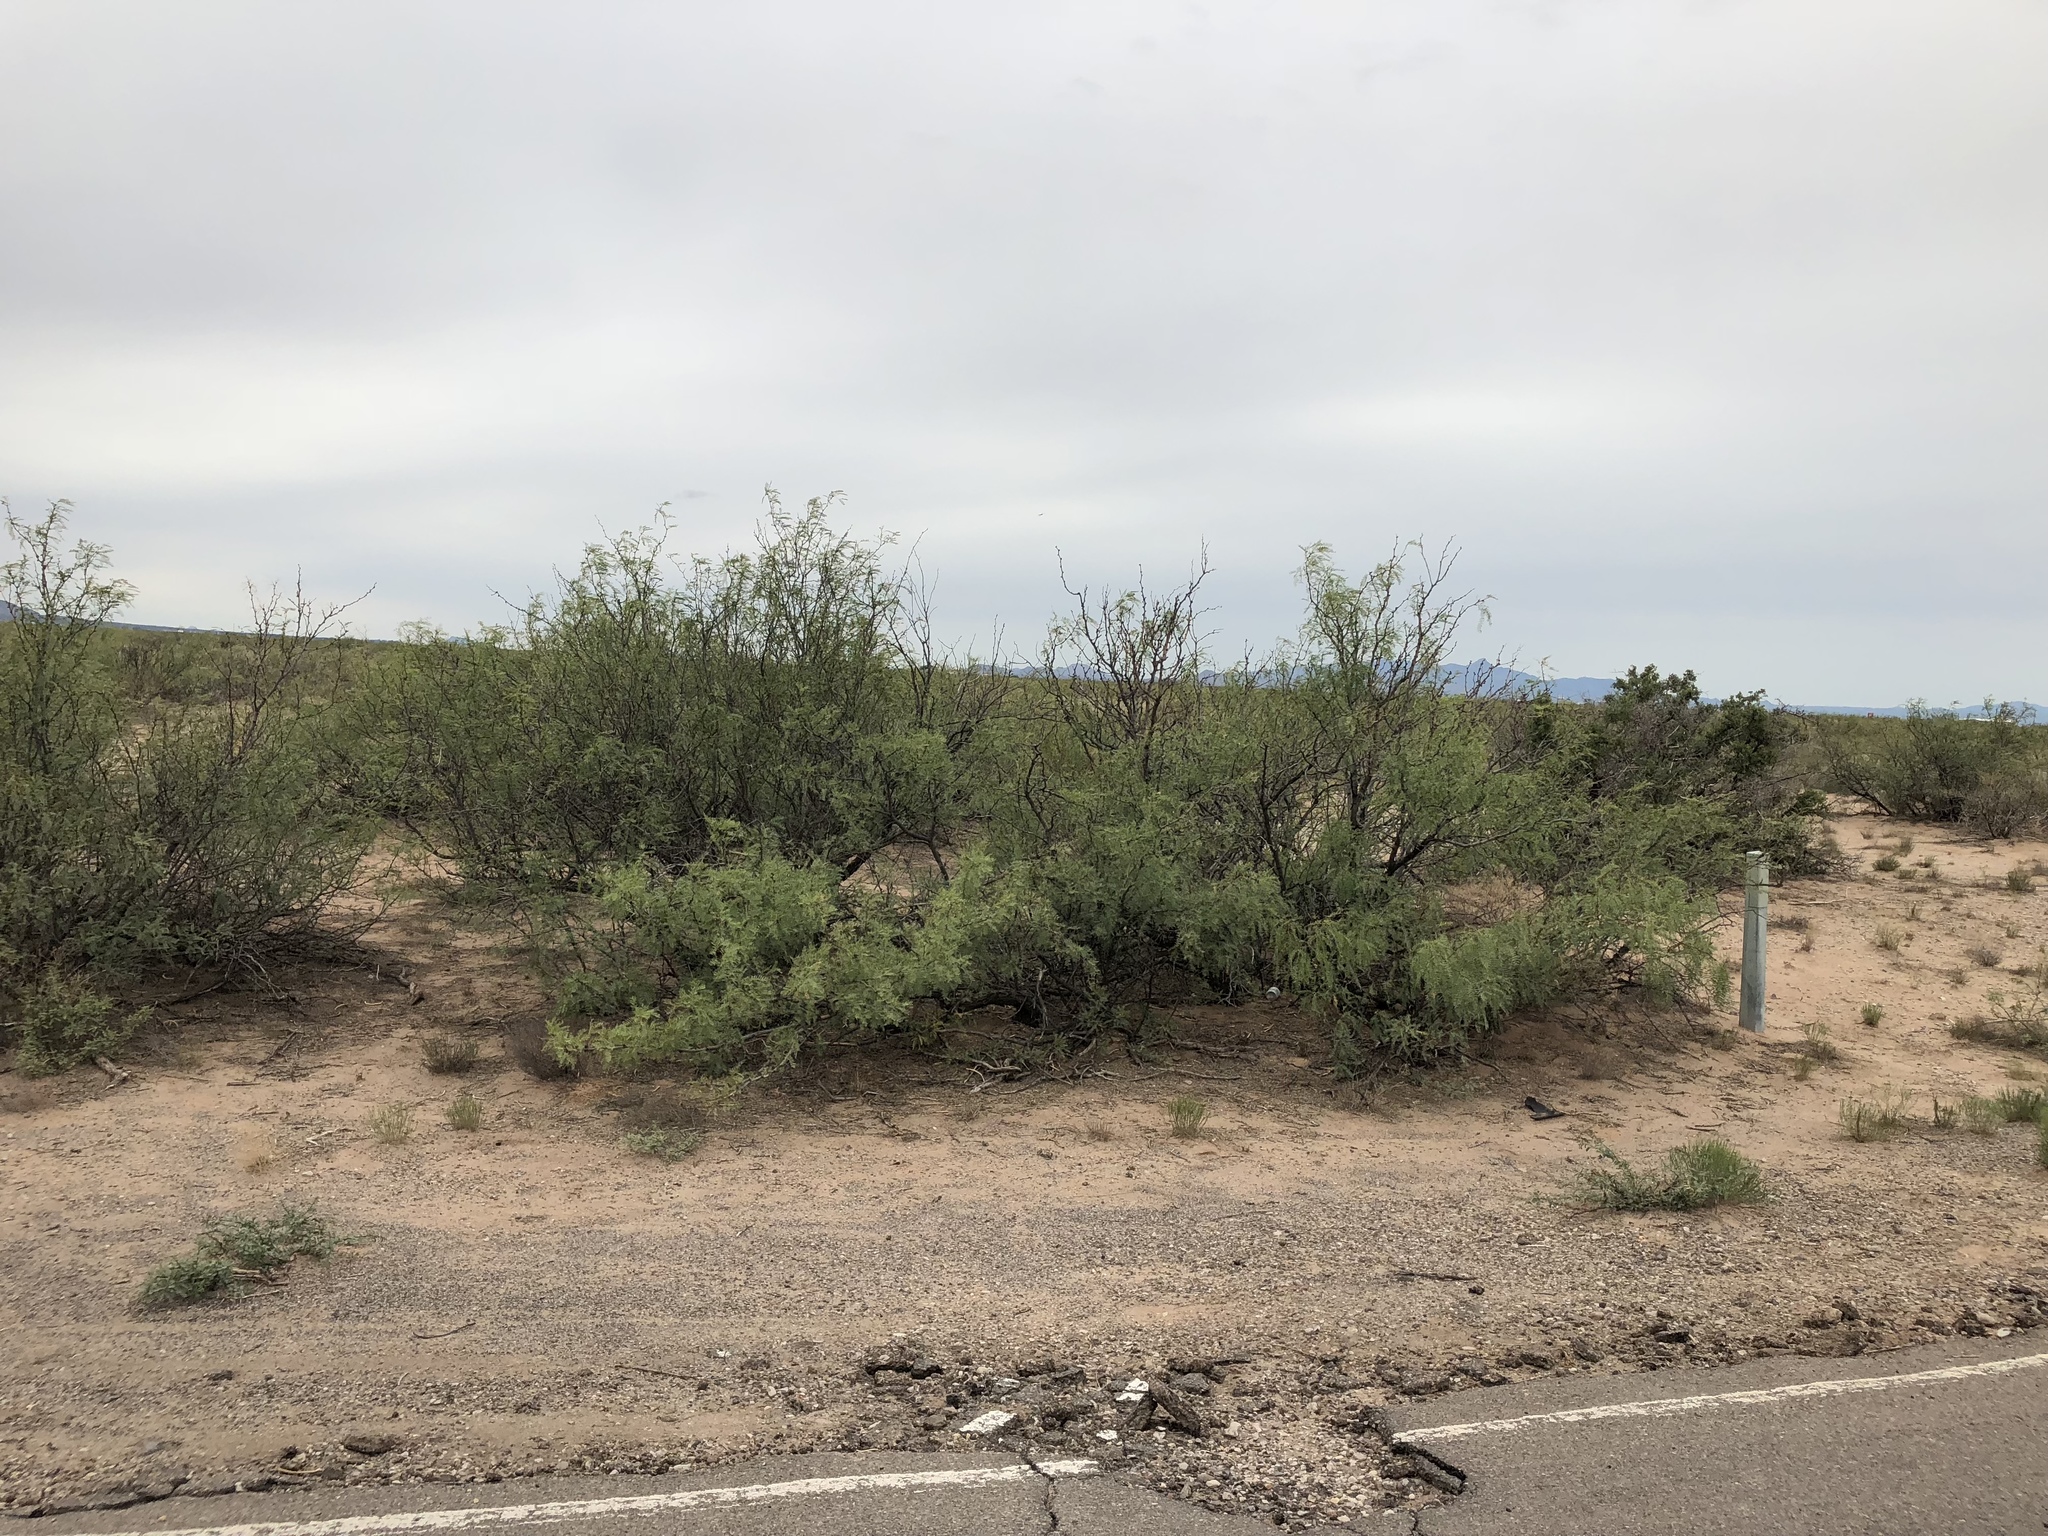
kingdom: Plantae
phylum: Tracheophyta
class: Magnoliopsida
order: Fabales
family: Fabaceae
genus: Prosopis
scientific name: Prosopis glandulosa
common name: Honey mesquite
